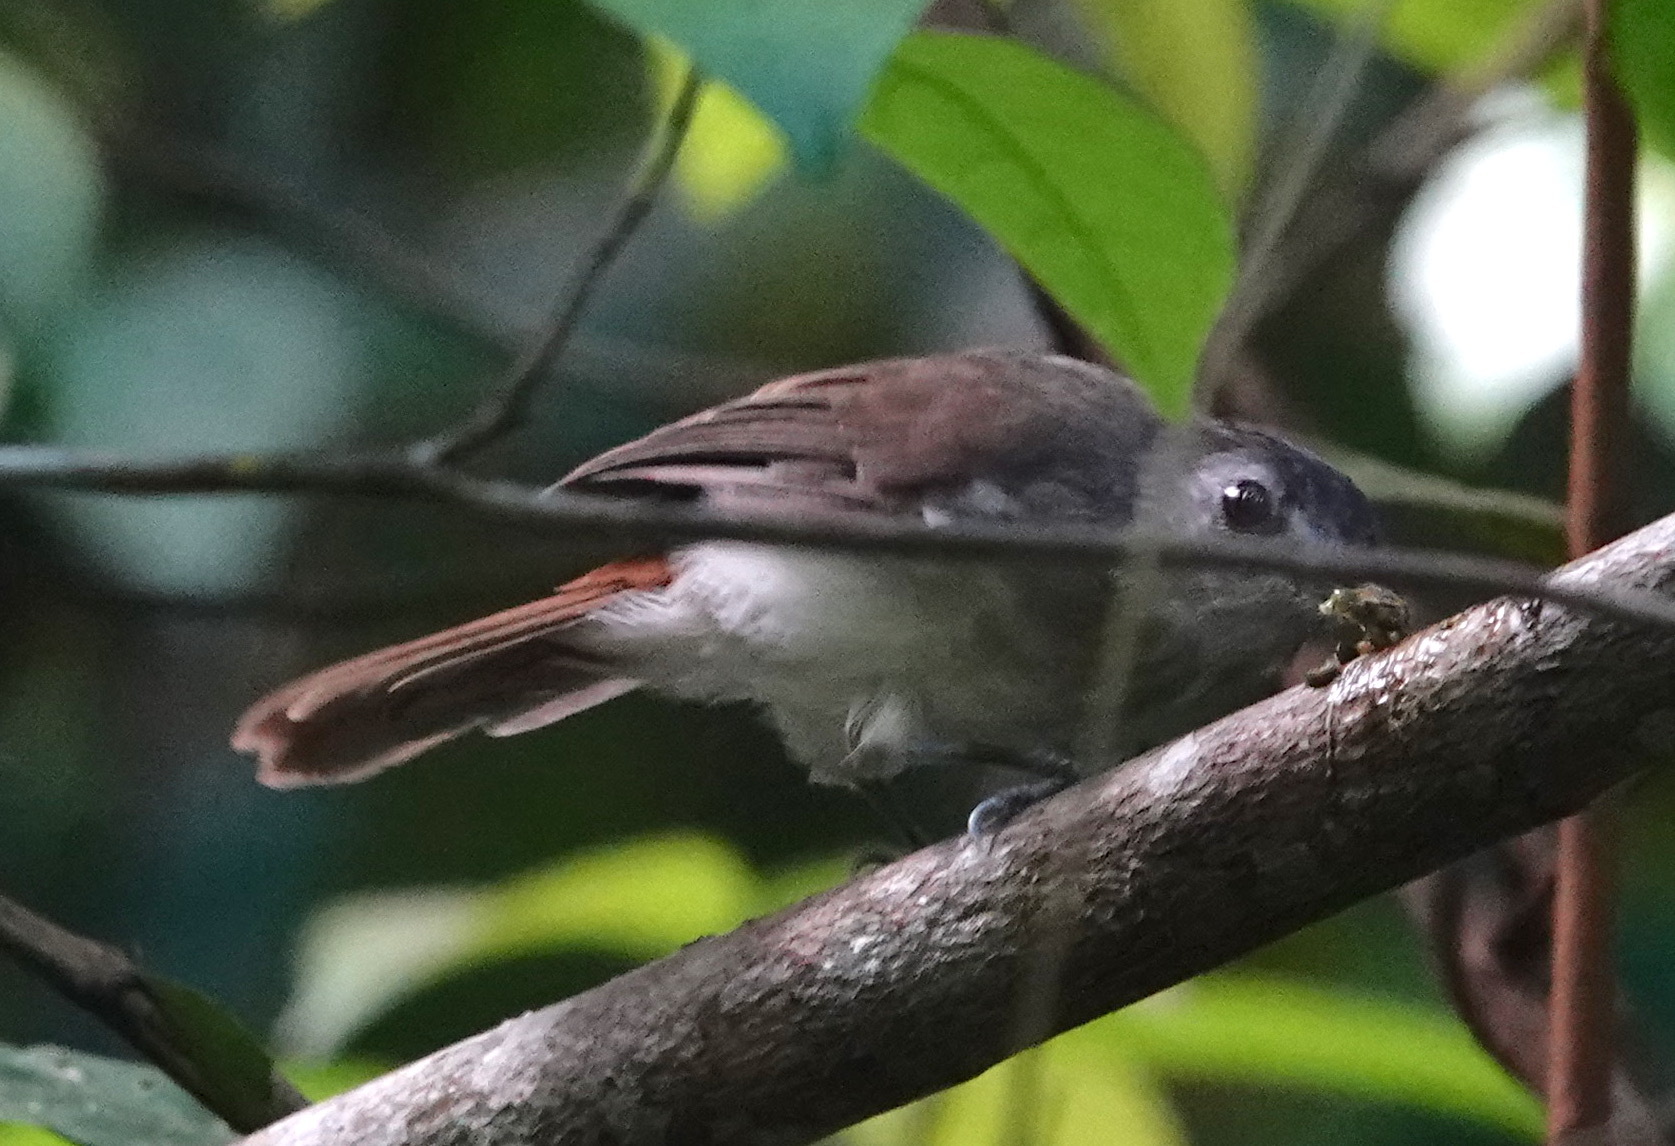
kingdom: Animalia
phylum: Chordata
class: Aves
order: Passeriformes
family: Pellorneidae
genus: Malacopteron
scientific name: Malacopteron affine
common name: Sooty-capped babbler
